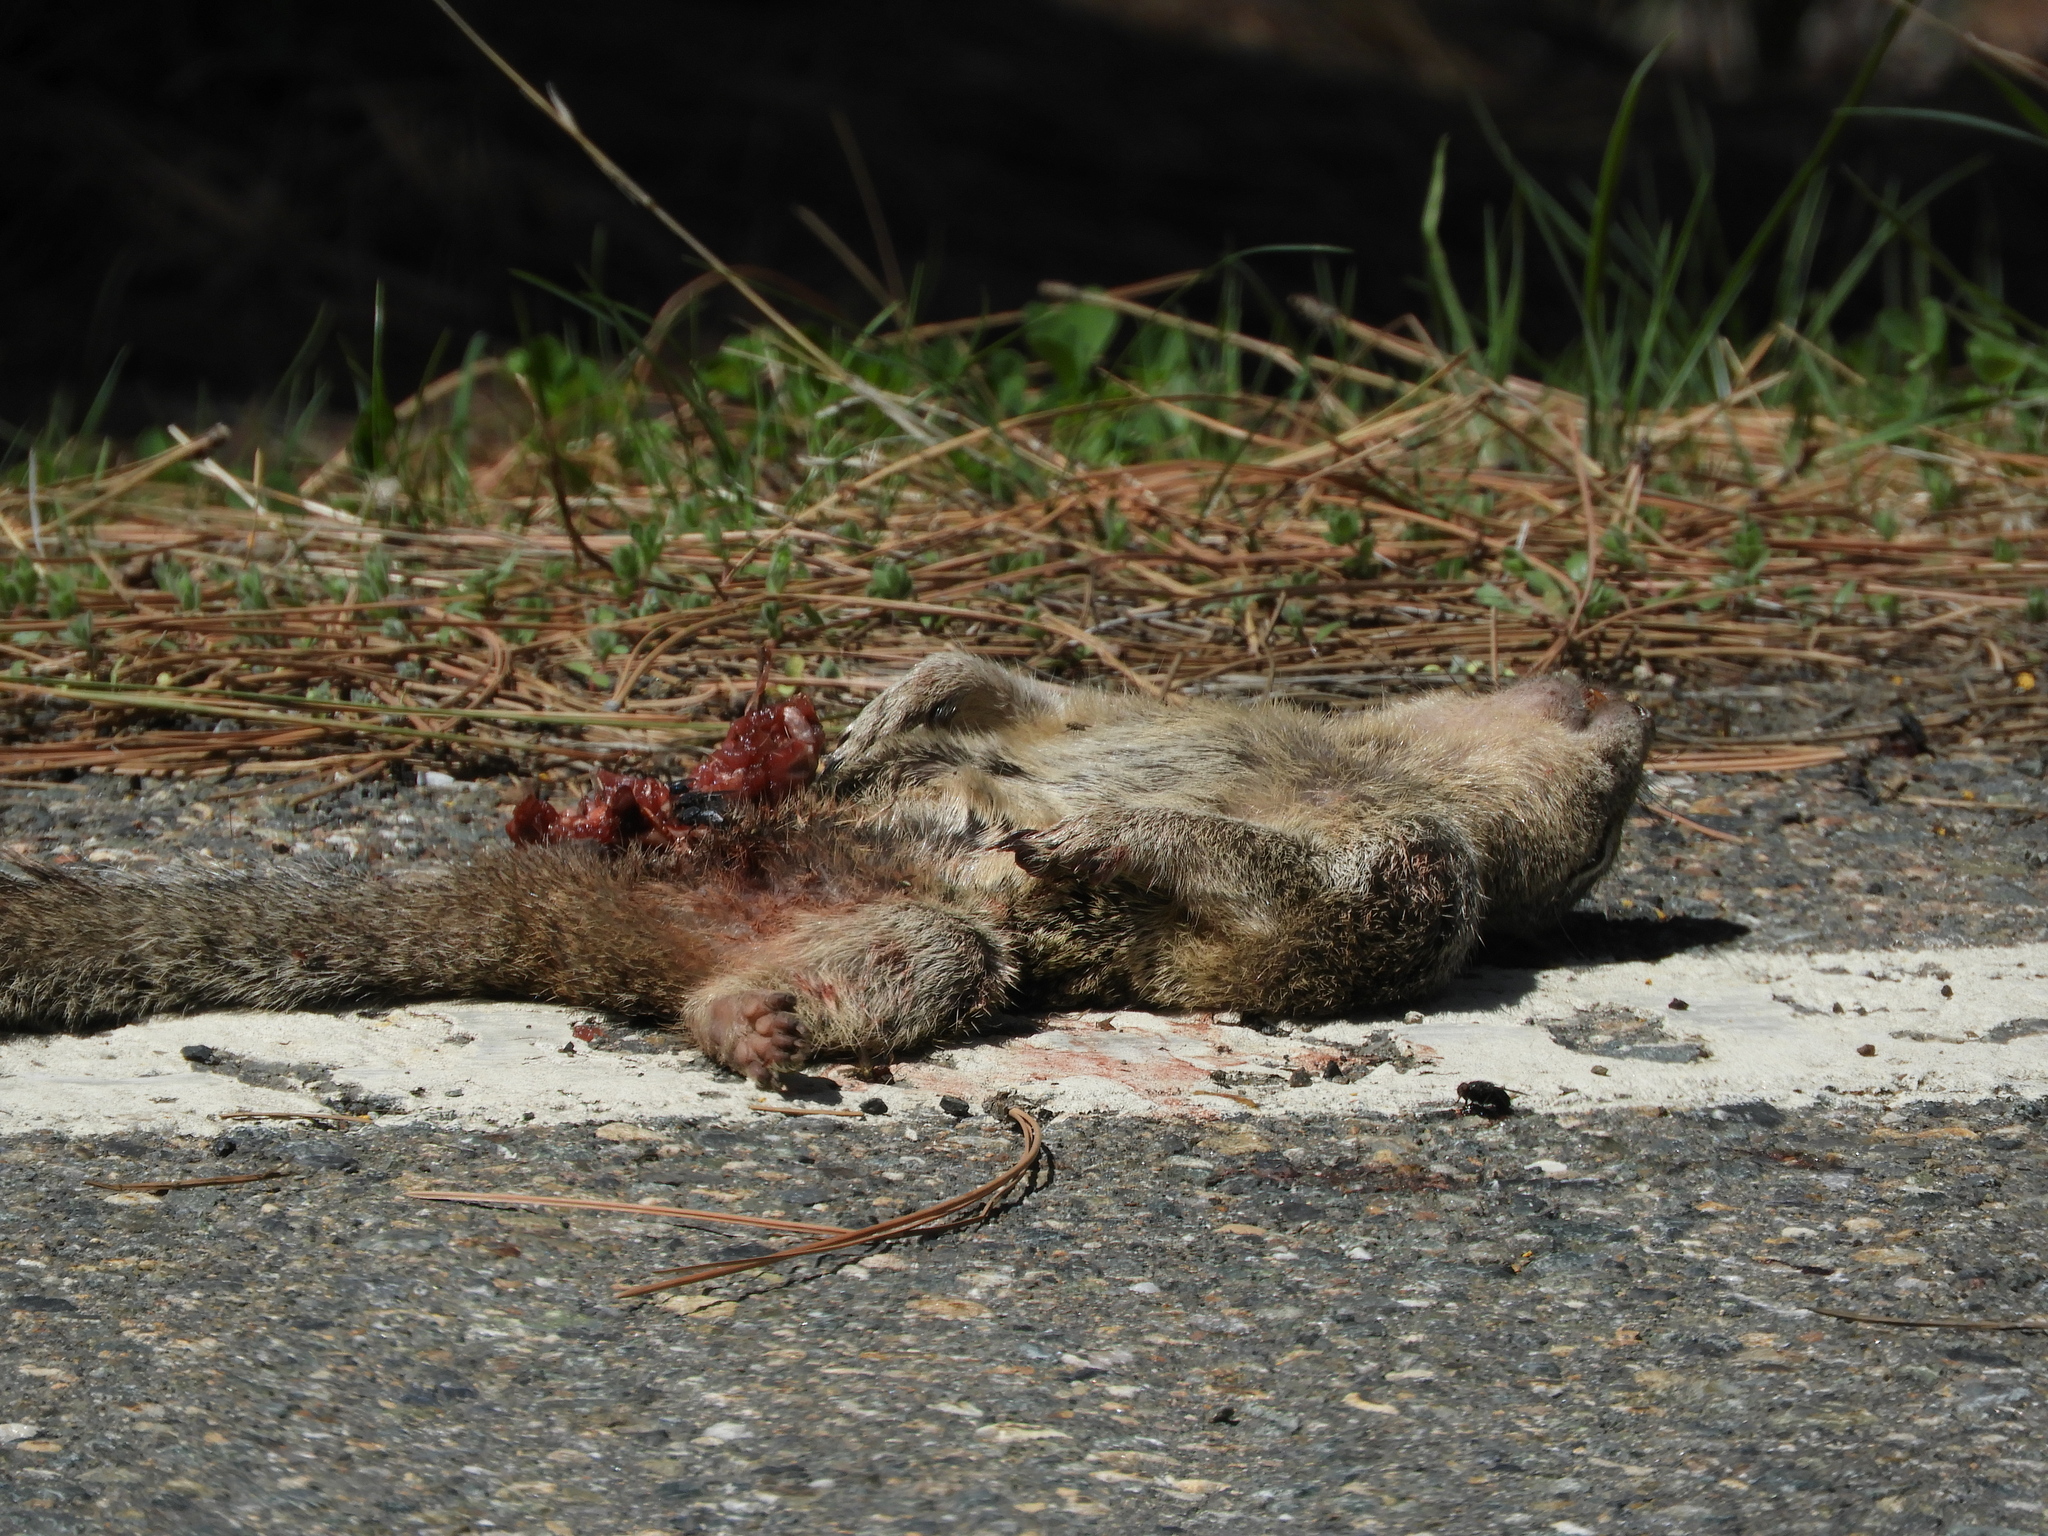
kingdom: Animalia
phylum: Chordata
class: Mammalia
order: Rodentia
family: Sciuridae
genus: Urocitellus
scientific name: Urocitellus beldingi
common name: Belding's ground squirrel
